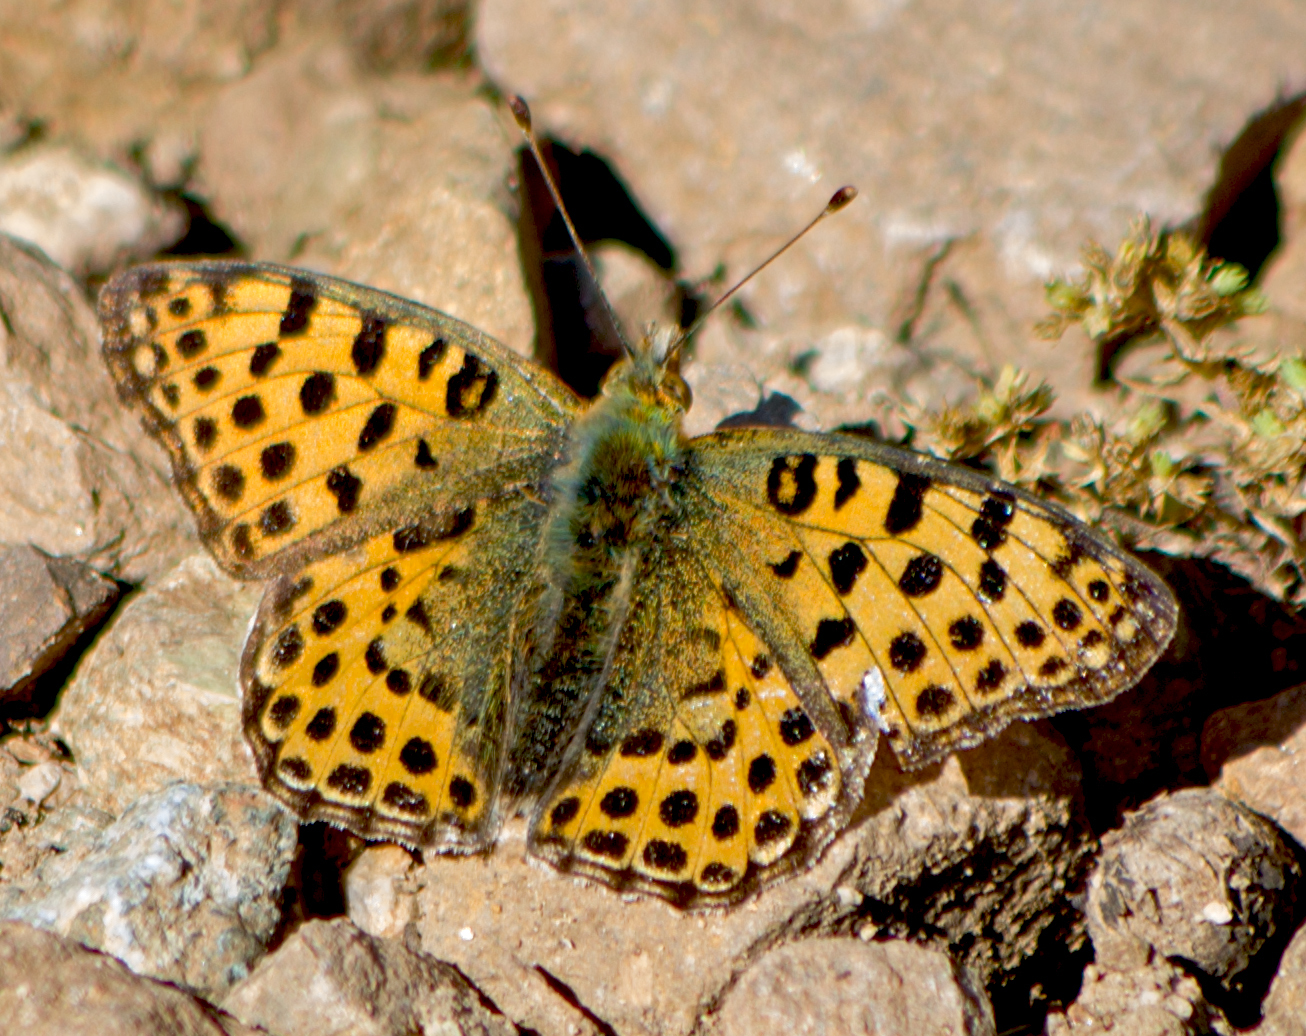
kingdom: Animalia
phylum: Arthropoda
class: Insecta
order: Lepidoptera
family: Nymphalidae
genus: Issoria
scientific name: Issoria lathonia
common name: Queen of spain fritillary
